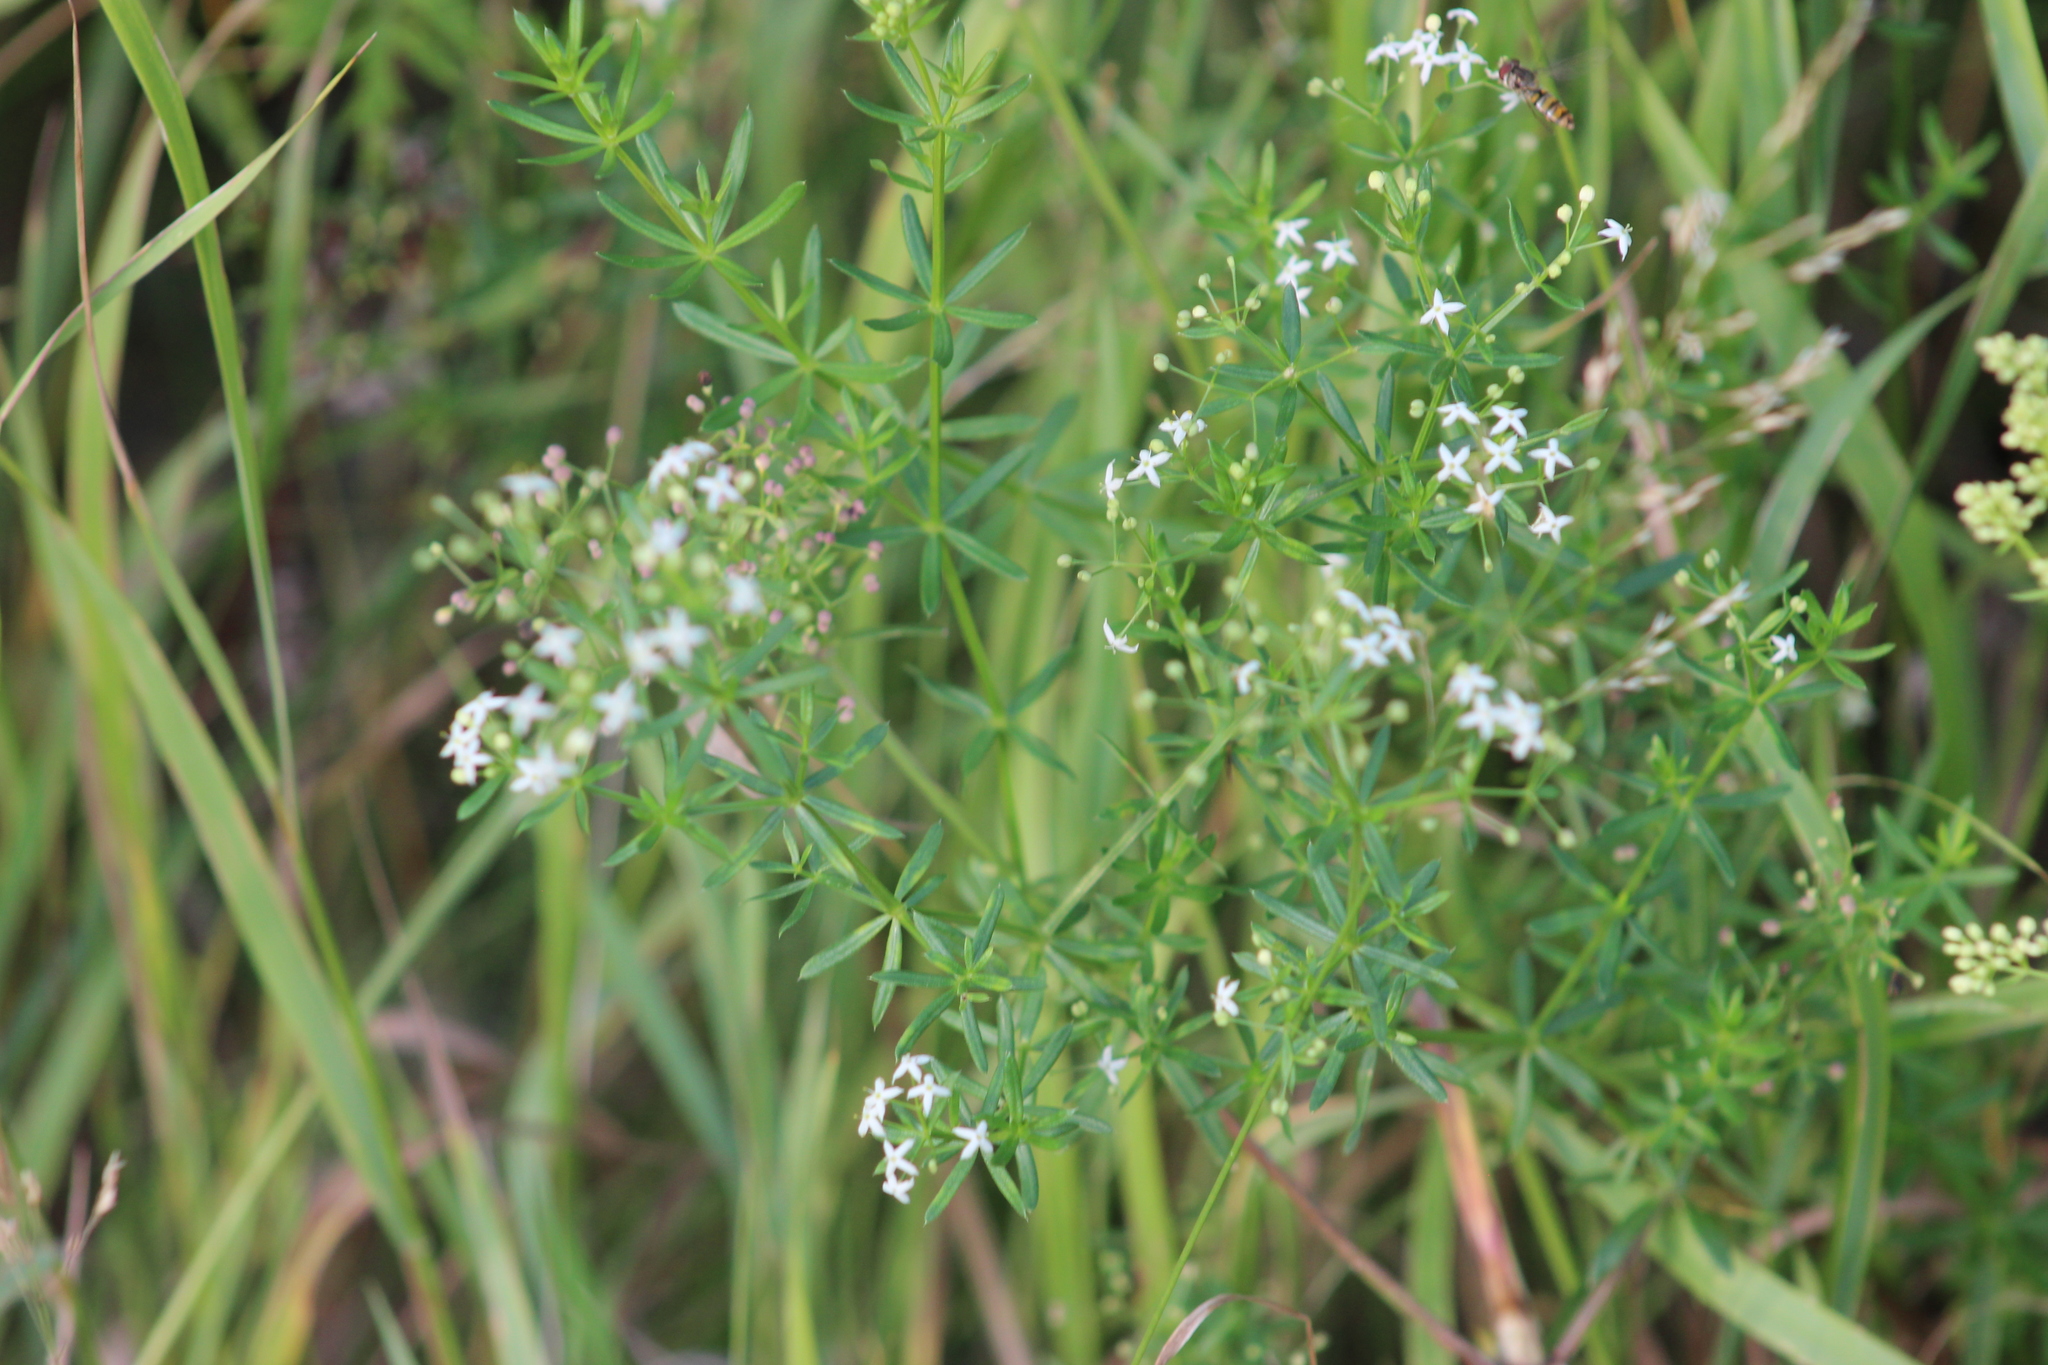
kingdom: Plantae
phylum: Tracheophyta
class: Magnoliopsida
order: Gentianales
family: Rubiaceae
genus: Galium
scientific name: Galium mollugo
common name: Hedge bedstraw
